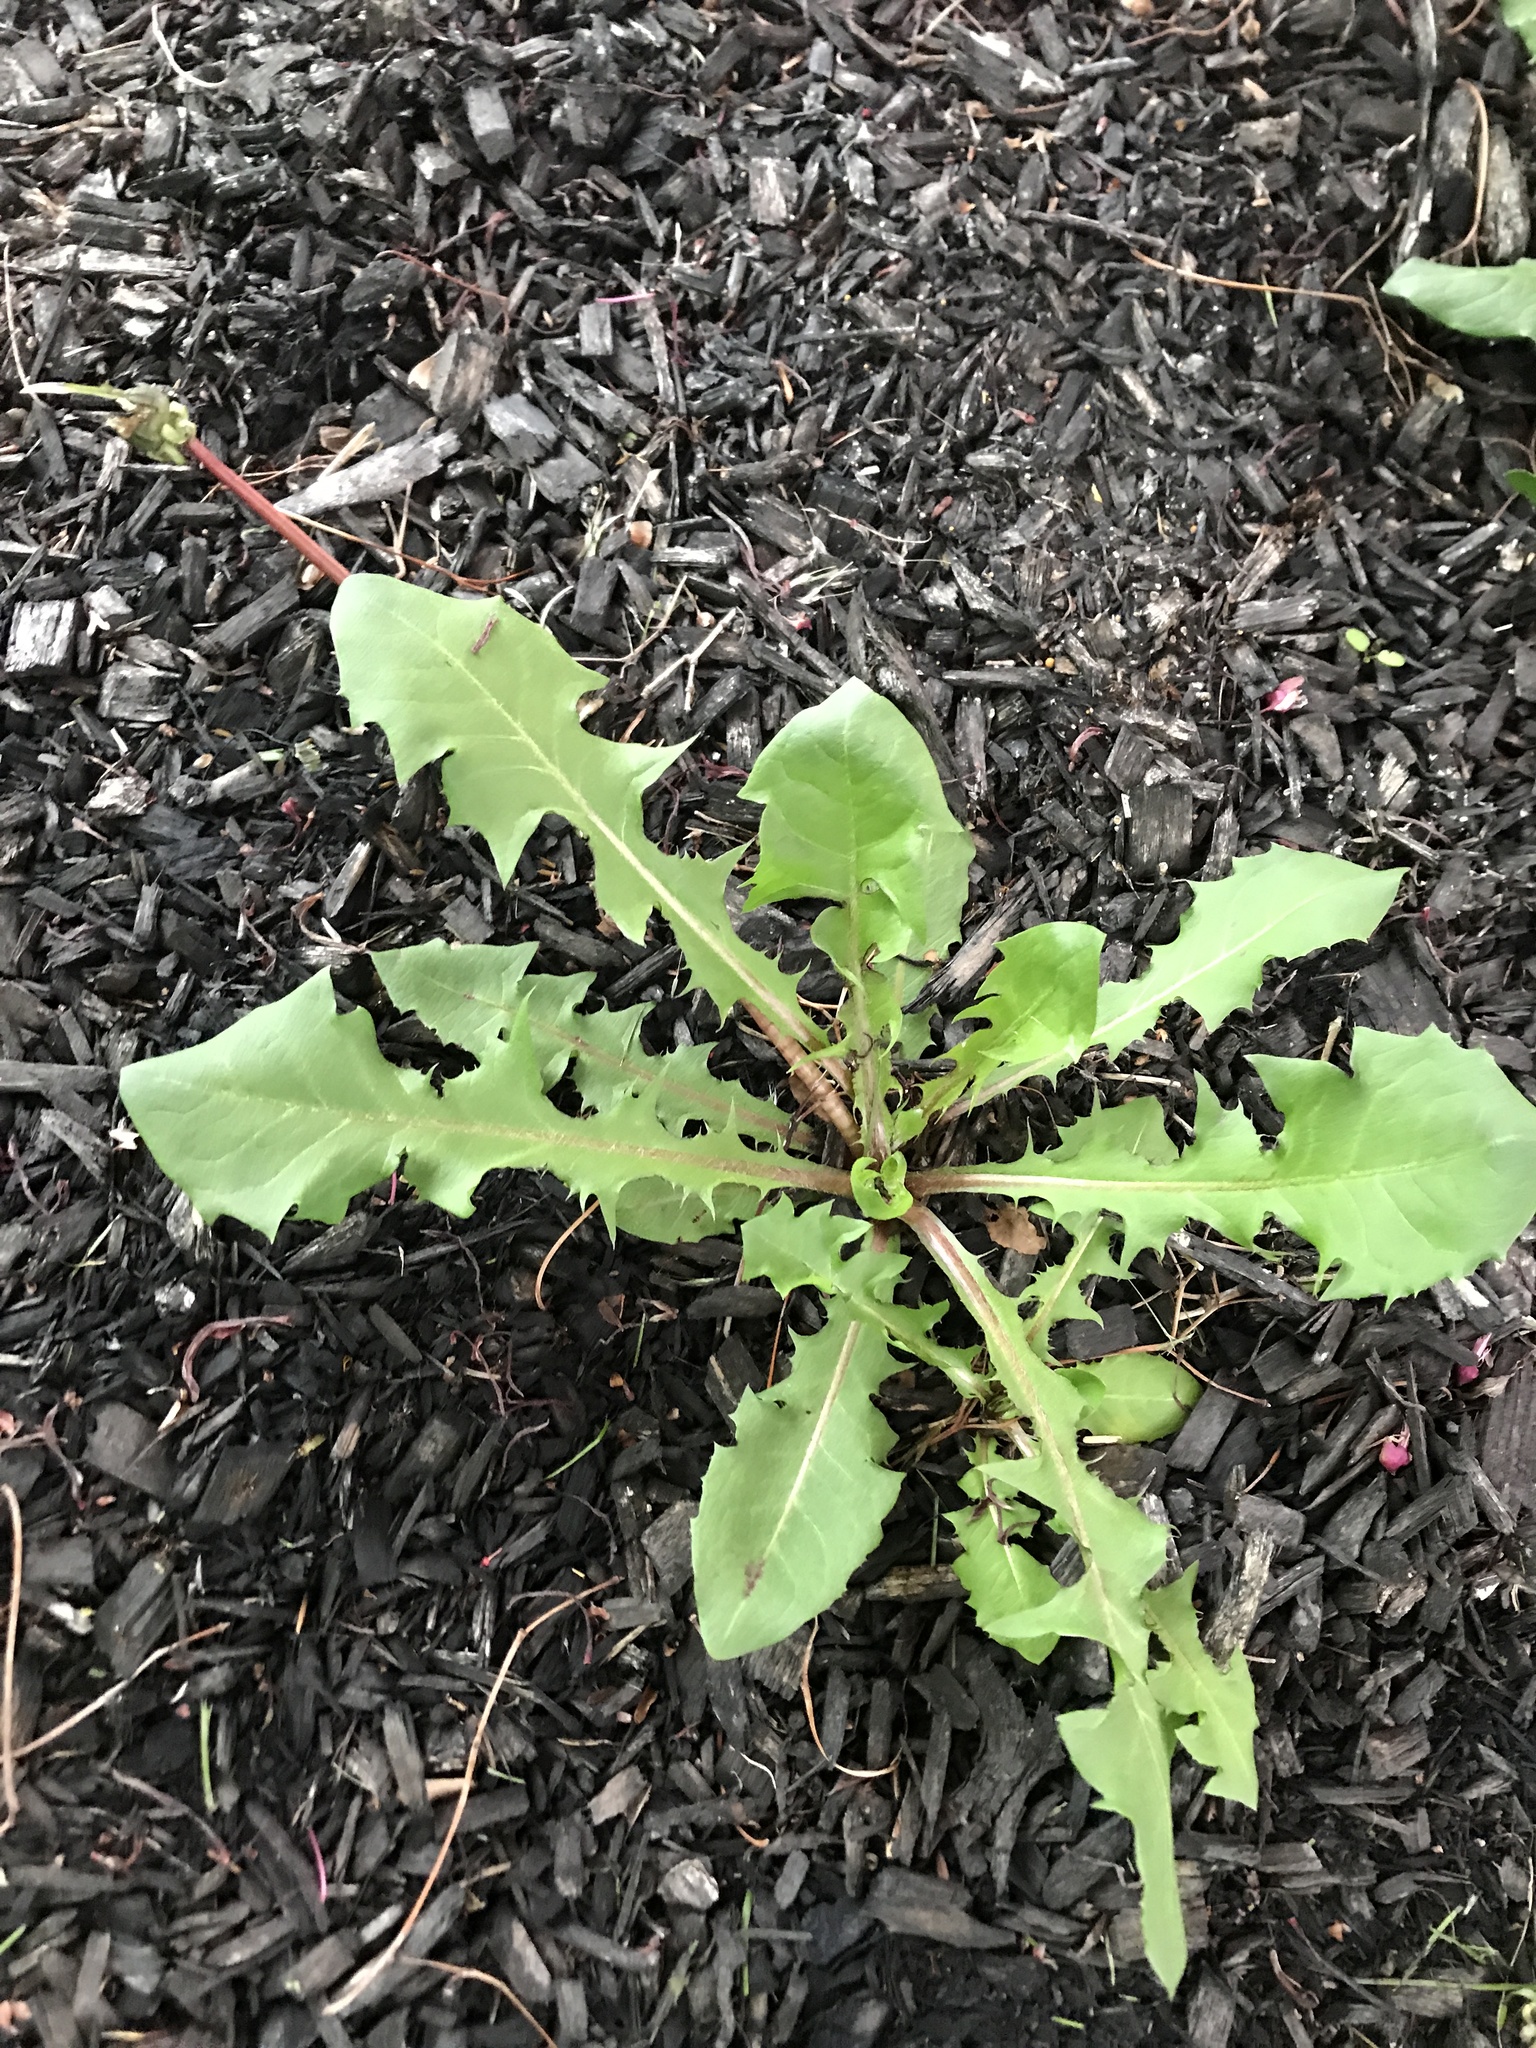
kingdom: Plantae
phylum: Tracheophyta
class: Magnoliopsida
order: Asterales
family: Asteraceae
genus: Taraxacum
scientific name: Taraxacum officinale
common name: Common dandelion
